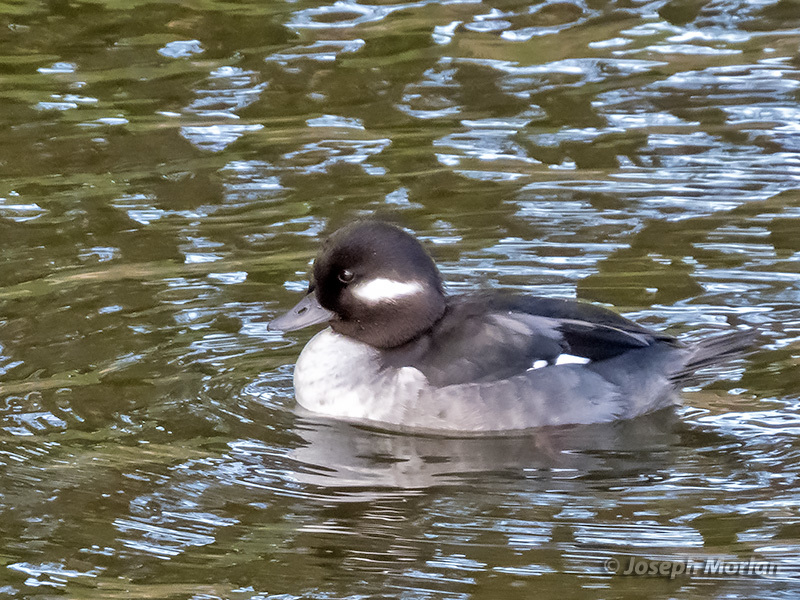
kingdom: Animalia
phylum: Chordata
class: Aves
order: Anseriformes
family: Anatidae
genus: Bucephala
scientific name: Bucephala albeola
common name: Bufflehead
